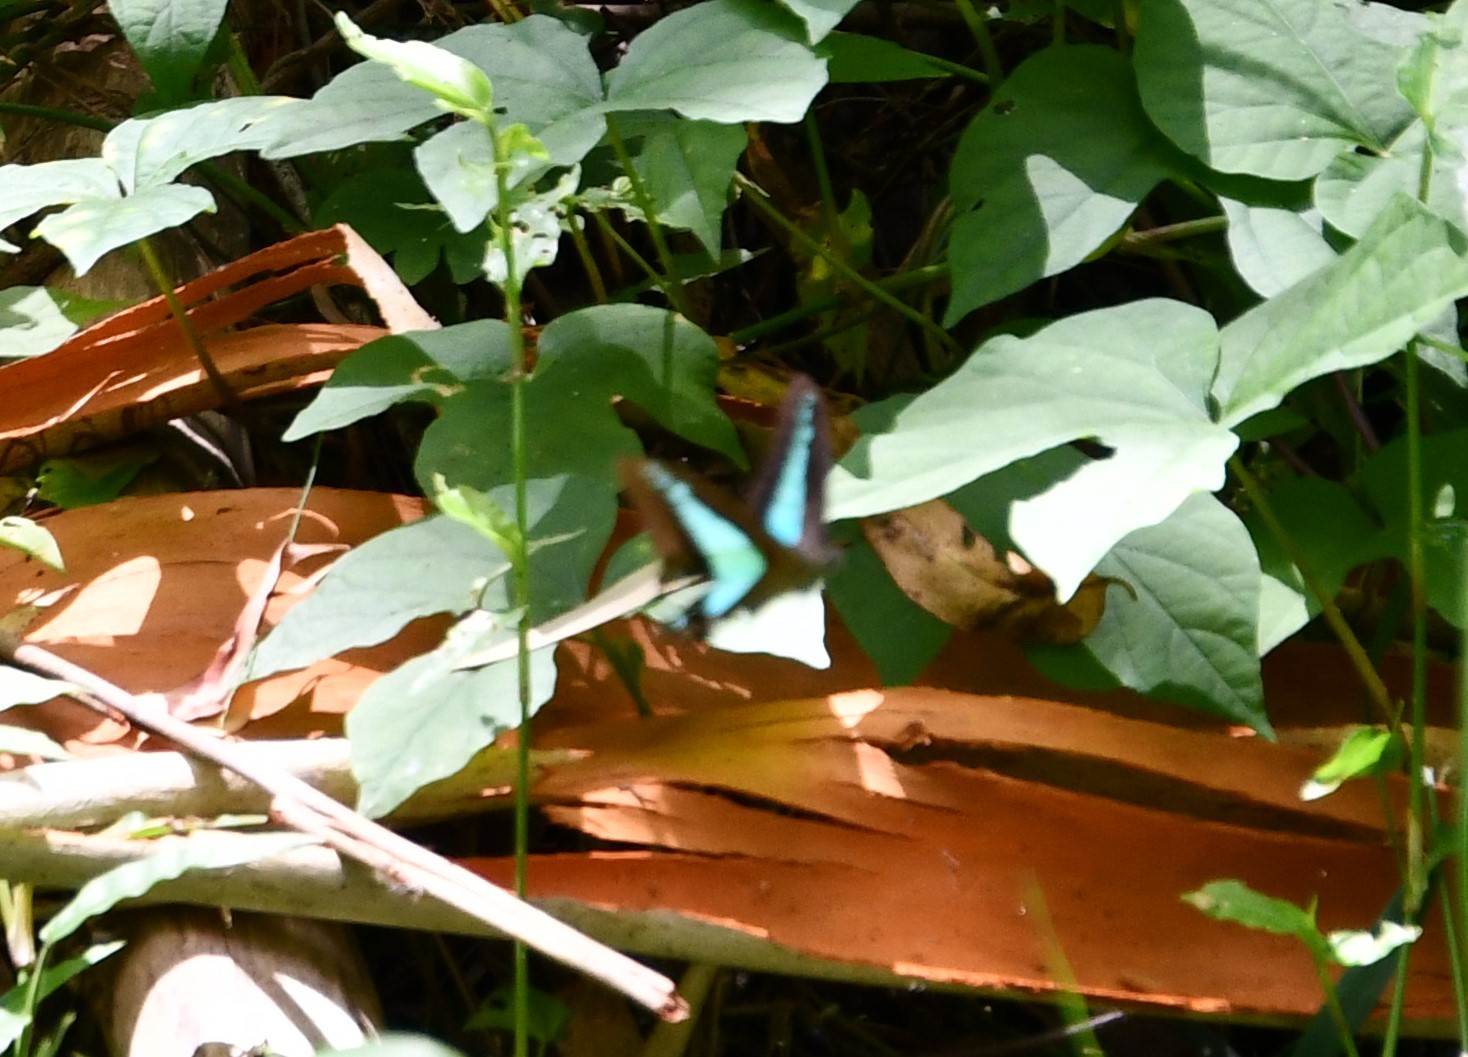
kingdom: Animalia
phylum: Arthropoda
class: Insecta
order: Lepidoptera
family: Papilionidae
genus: Graphium
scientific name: Graphium
